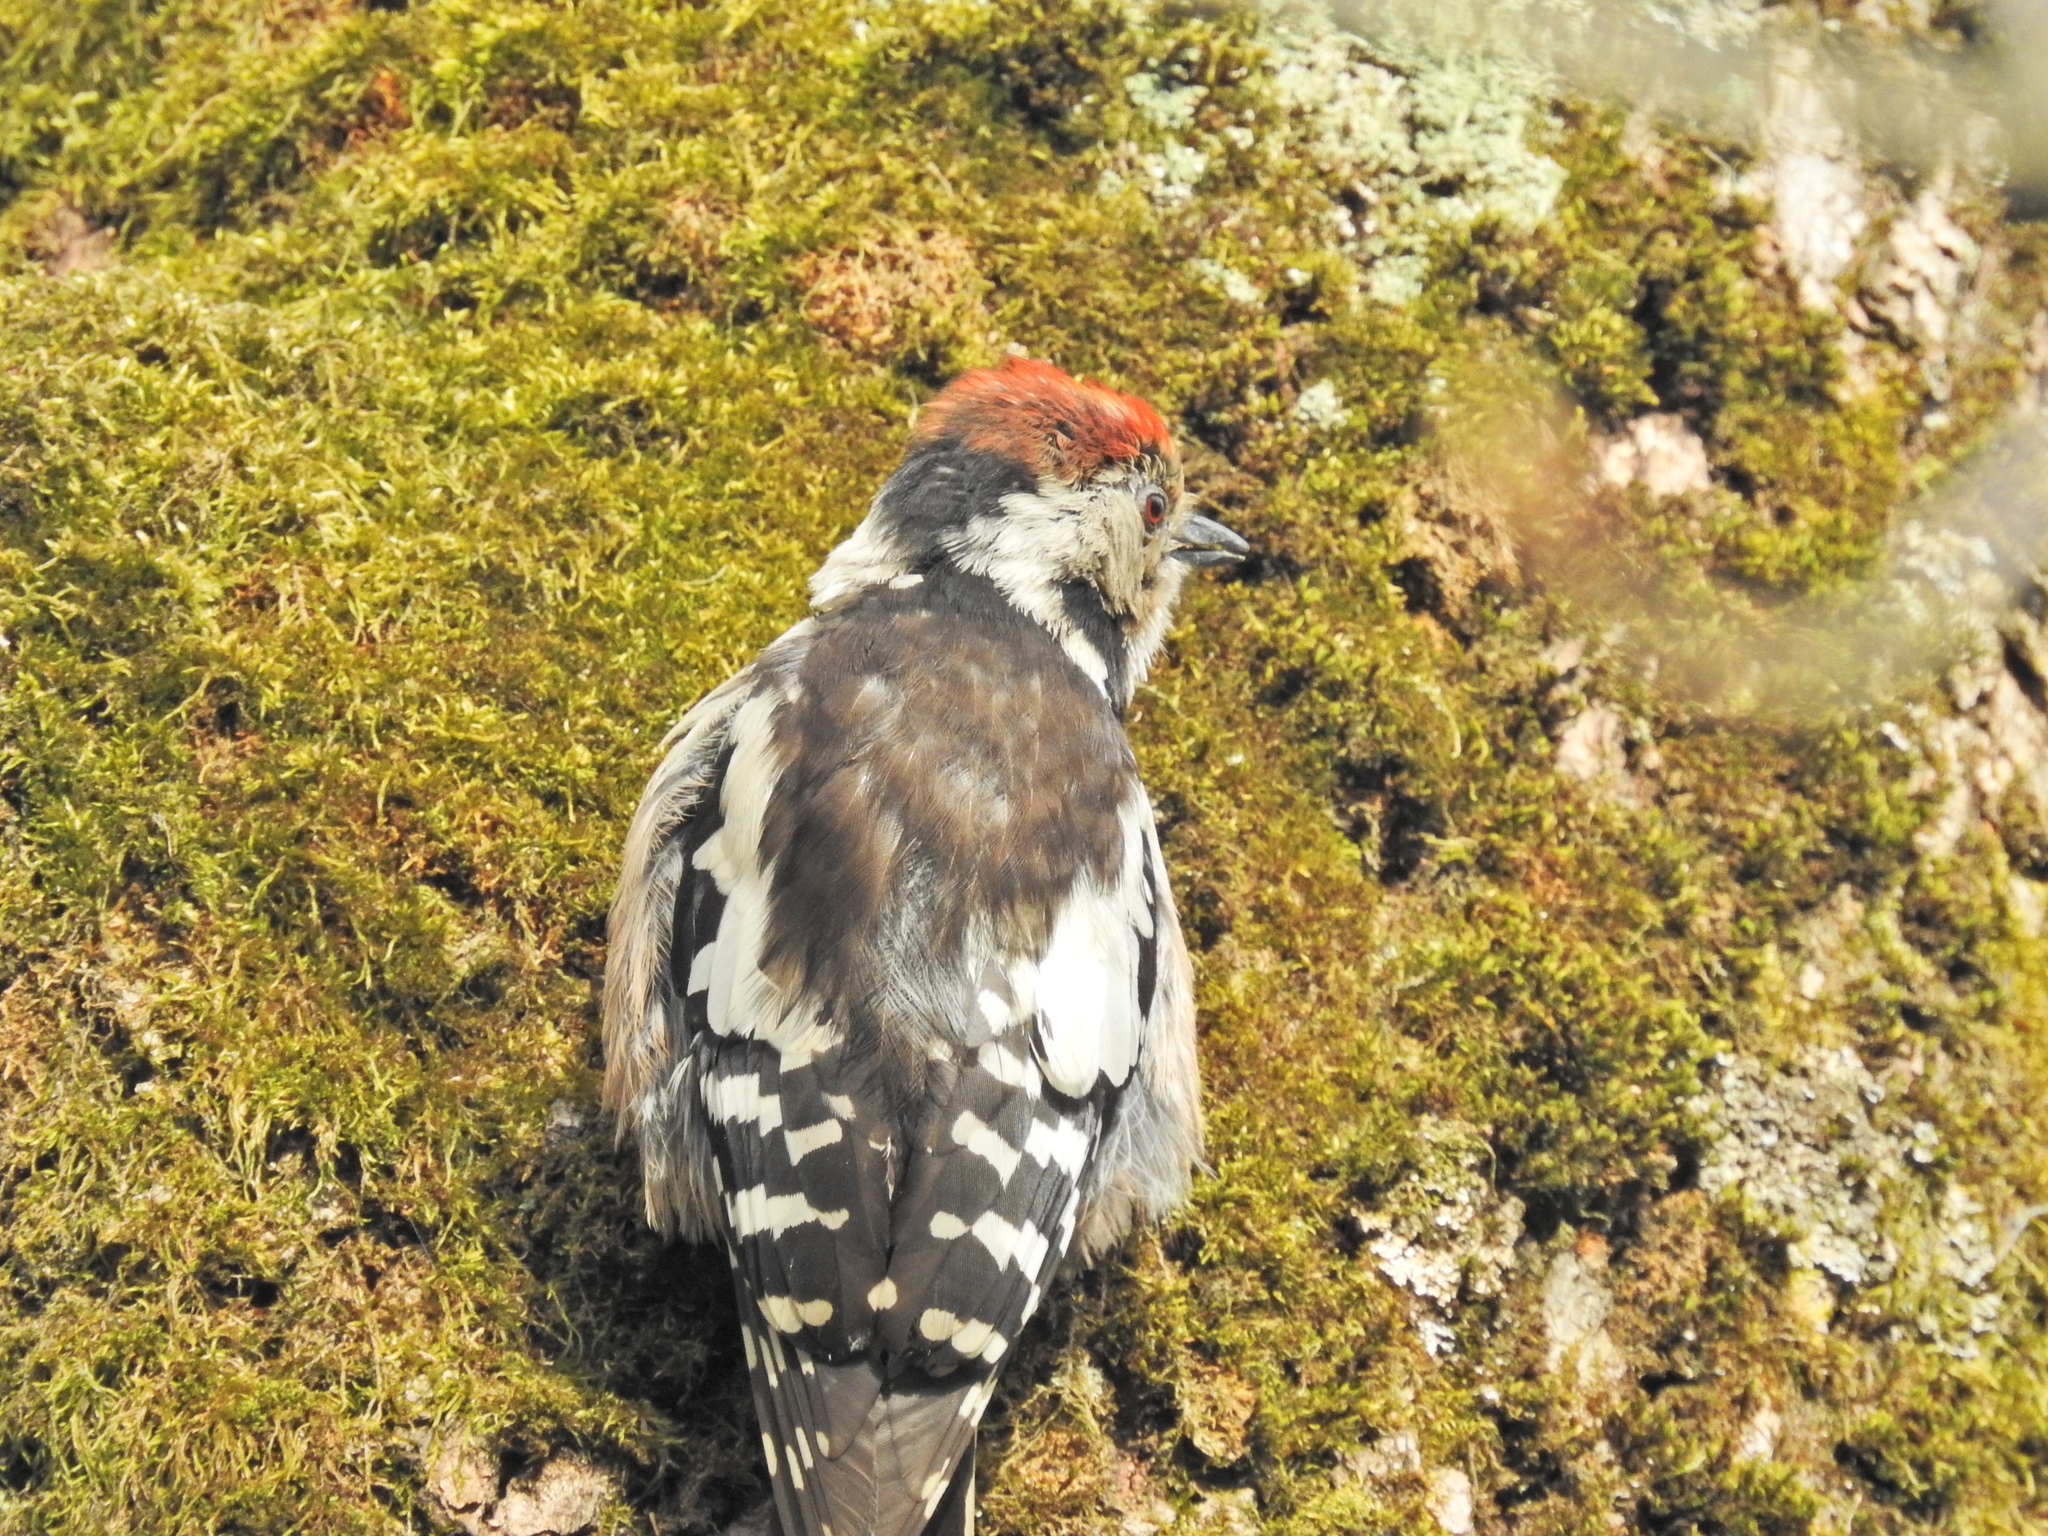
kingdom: Animalia
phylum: Chordata
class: Aves
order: Piciformes
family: Picidae
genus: Dendrocoptes
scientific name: Dendrocoptes medius
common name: Middle spotted woodpecker
